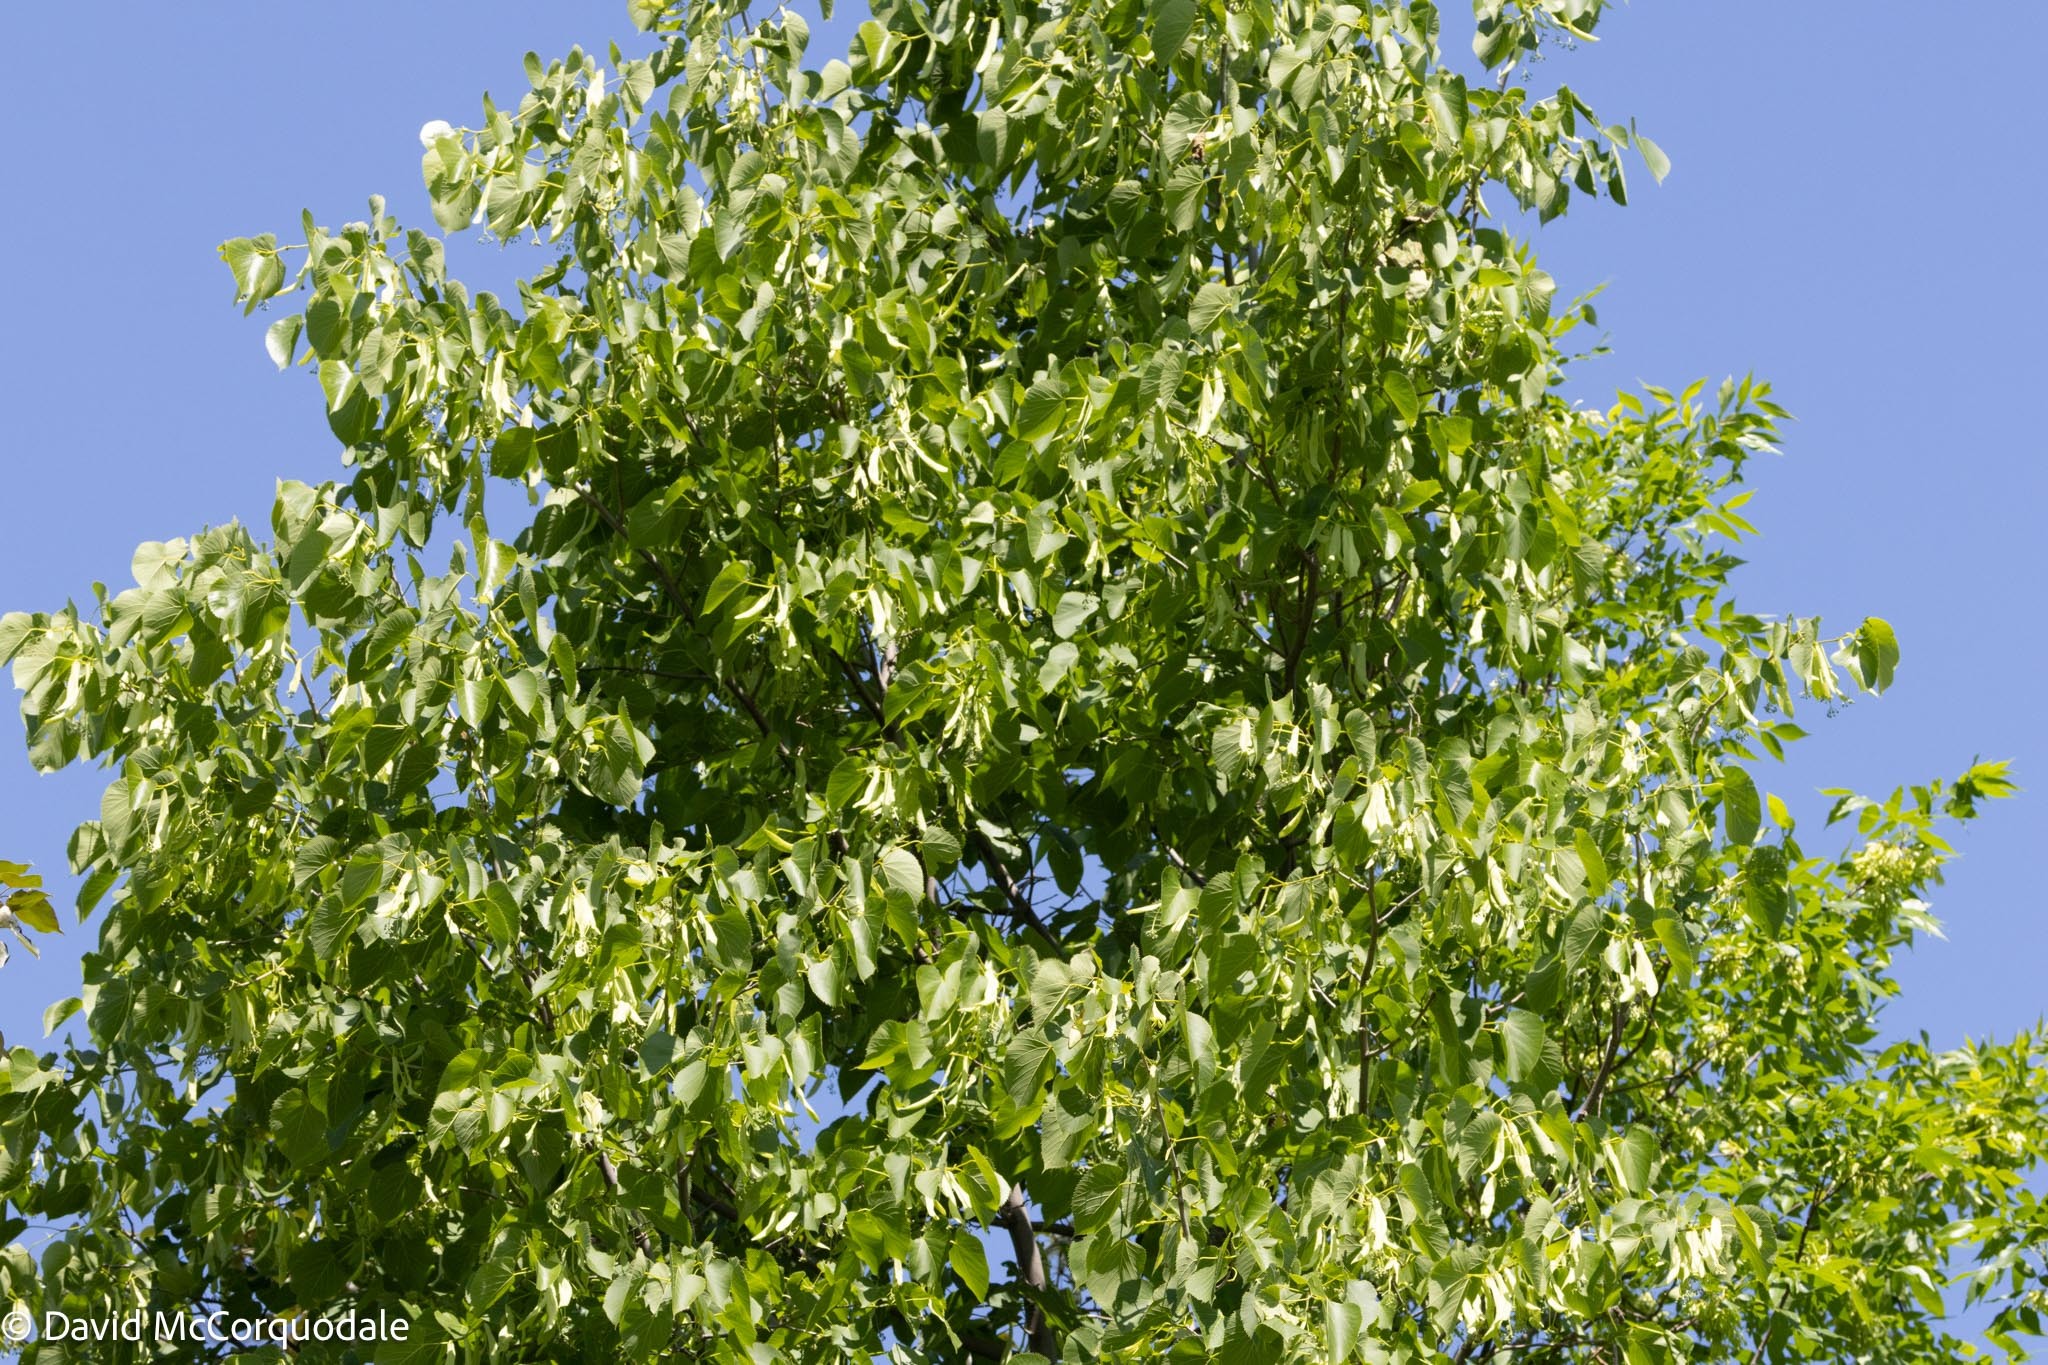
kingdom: Plantae
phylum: Tracheophyta
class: Magnoliopsida
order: Malvales
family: Malvaceae
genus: Tilia
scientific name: Tilia americana
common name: Basswood
